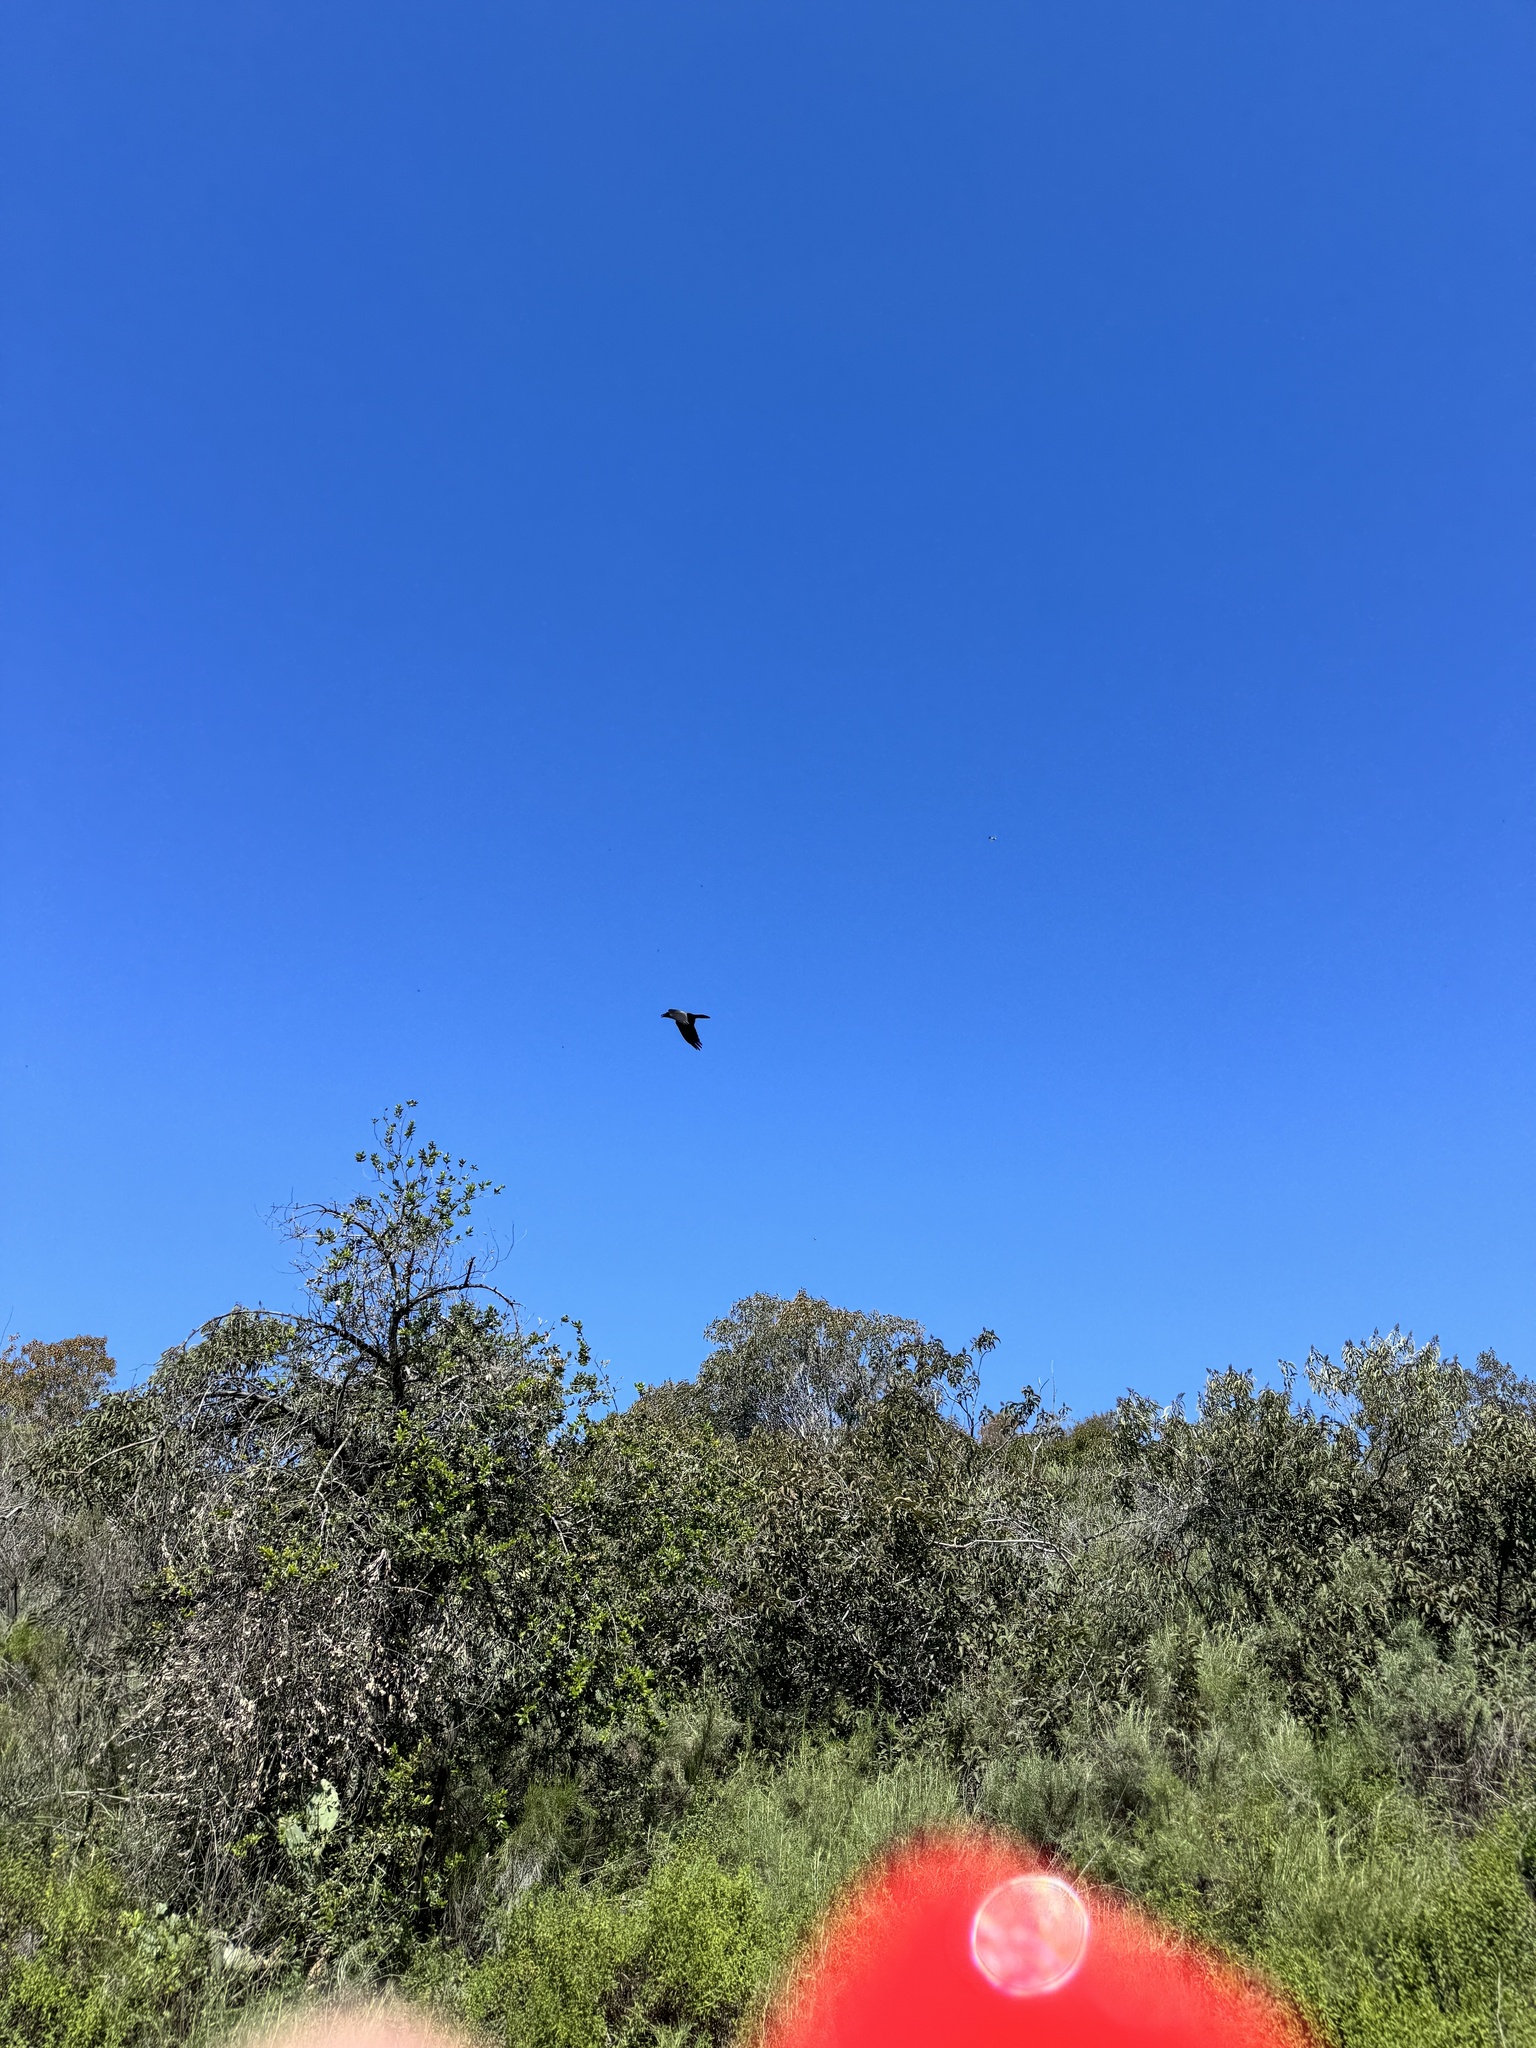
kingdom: Animalia
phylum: Chordata
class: Aves
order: Passeriformes
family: Corvidae
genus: Corvus
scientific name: Corvus corax
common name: Common raven
